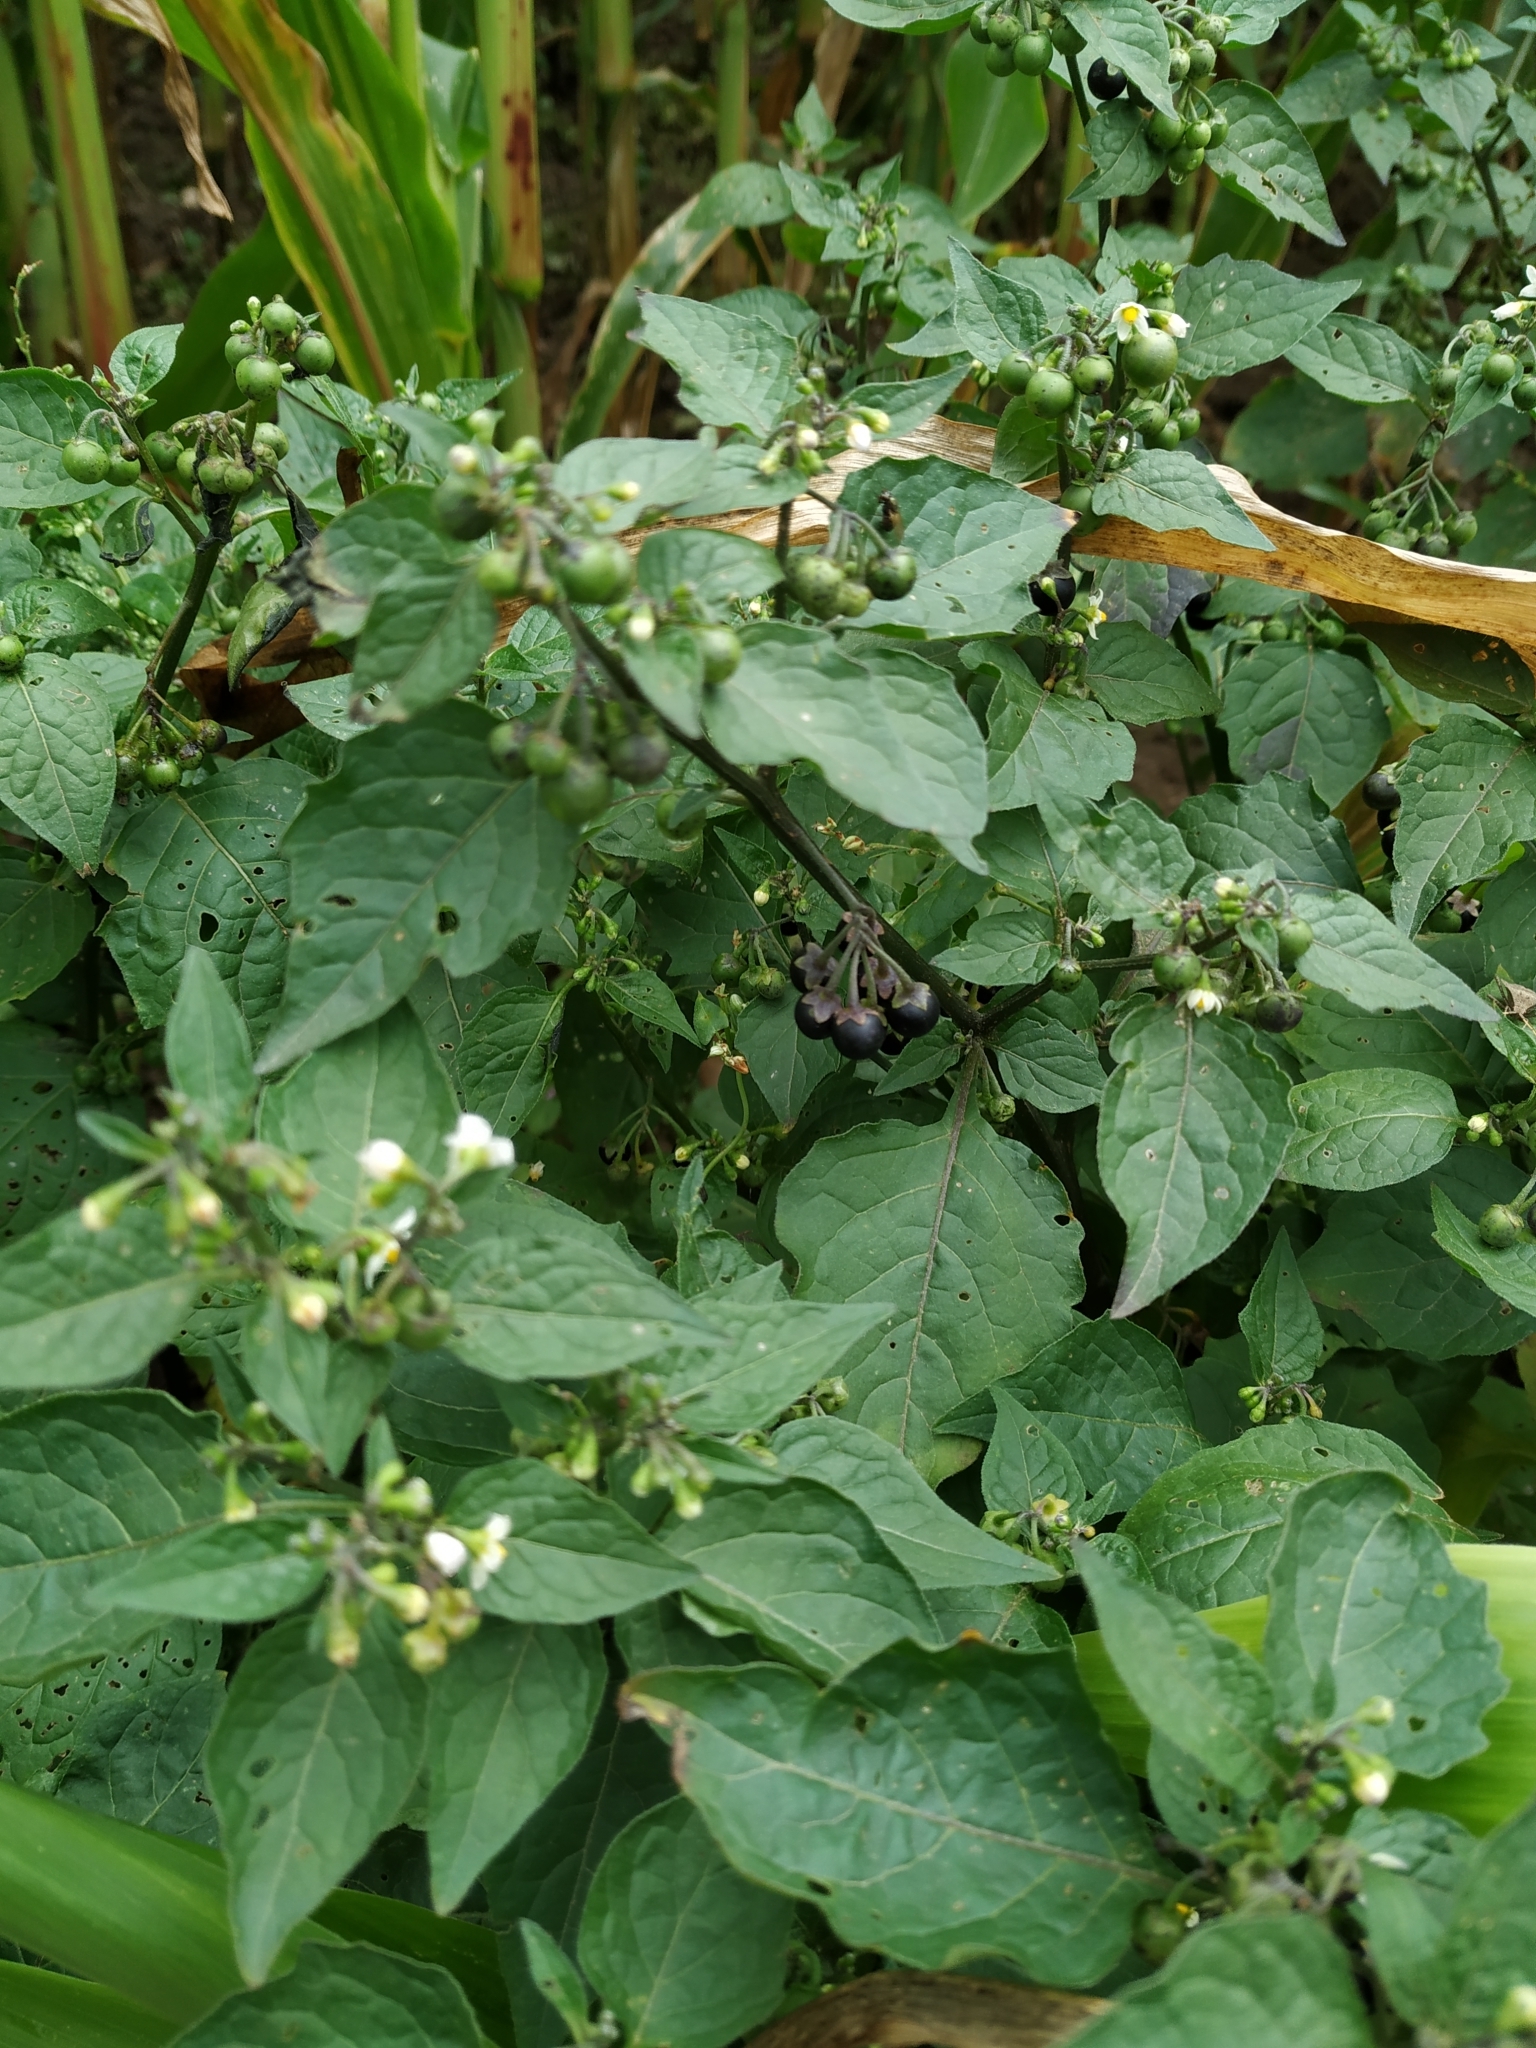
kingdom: Plantae
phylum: Tracheophyta
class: Magnoliopsida
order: Solanales
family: Solanaceae
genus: Solanum
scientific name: Solanum nigrum
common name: Black nightshade
